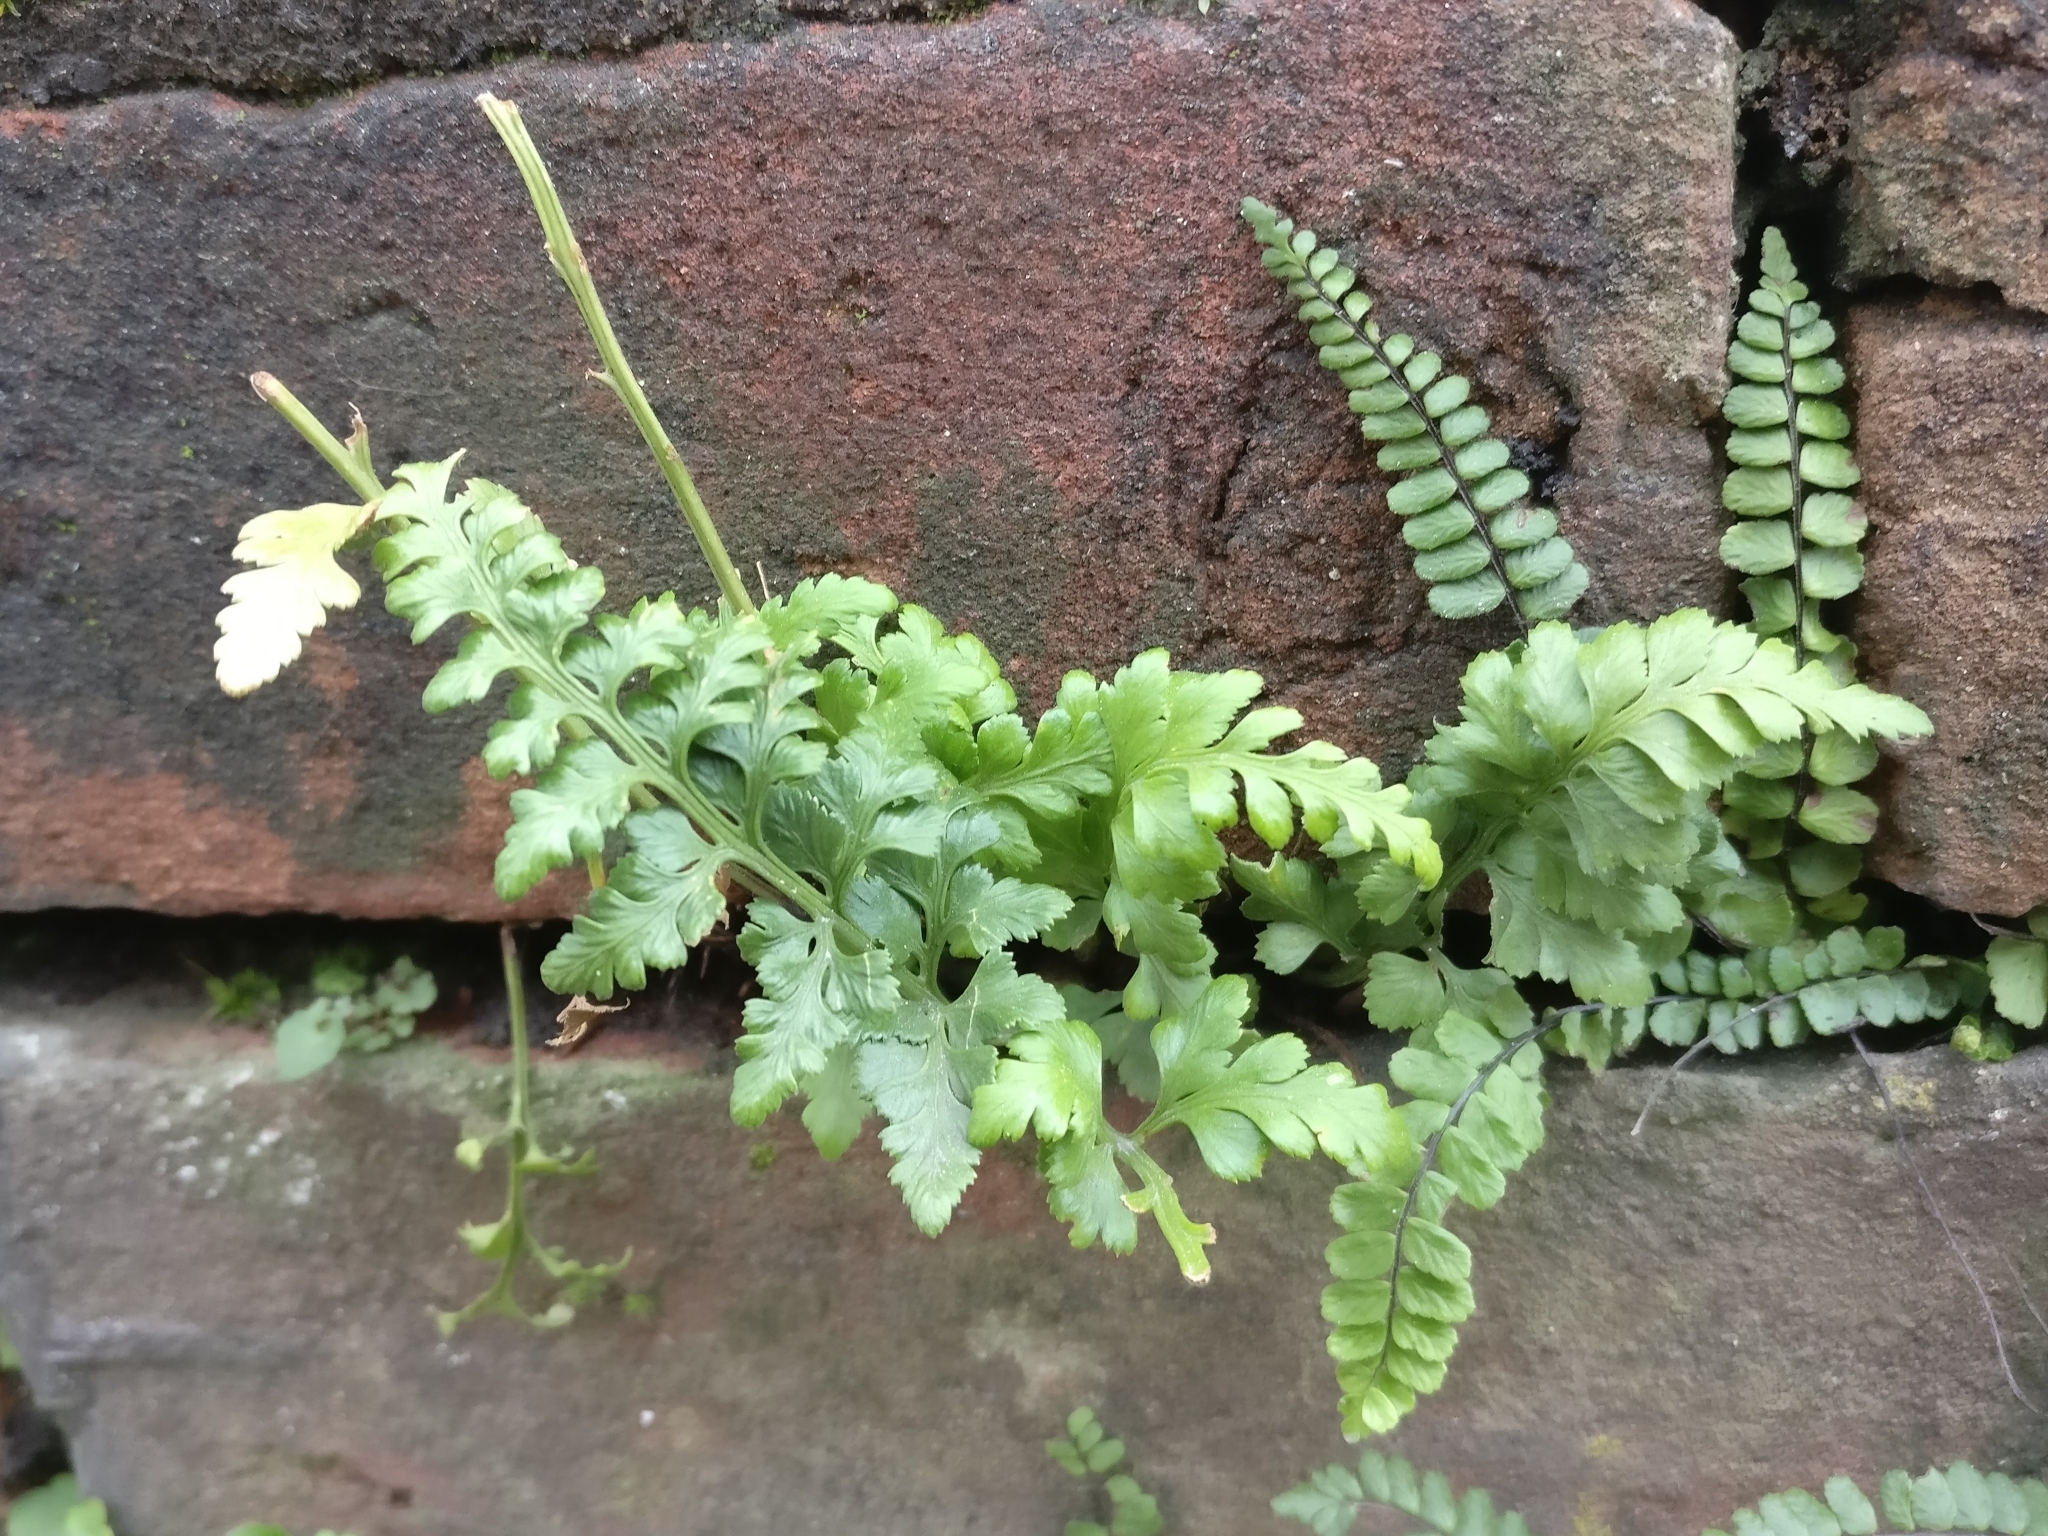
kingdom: Plantae
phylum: Tracheophyta
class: Polypodiopsida
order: Polypodiales
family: Aspleniaceae
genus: Asplenium
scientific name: Asplenium adiantum-nigrum
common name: Black spleenwort
